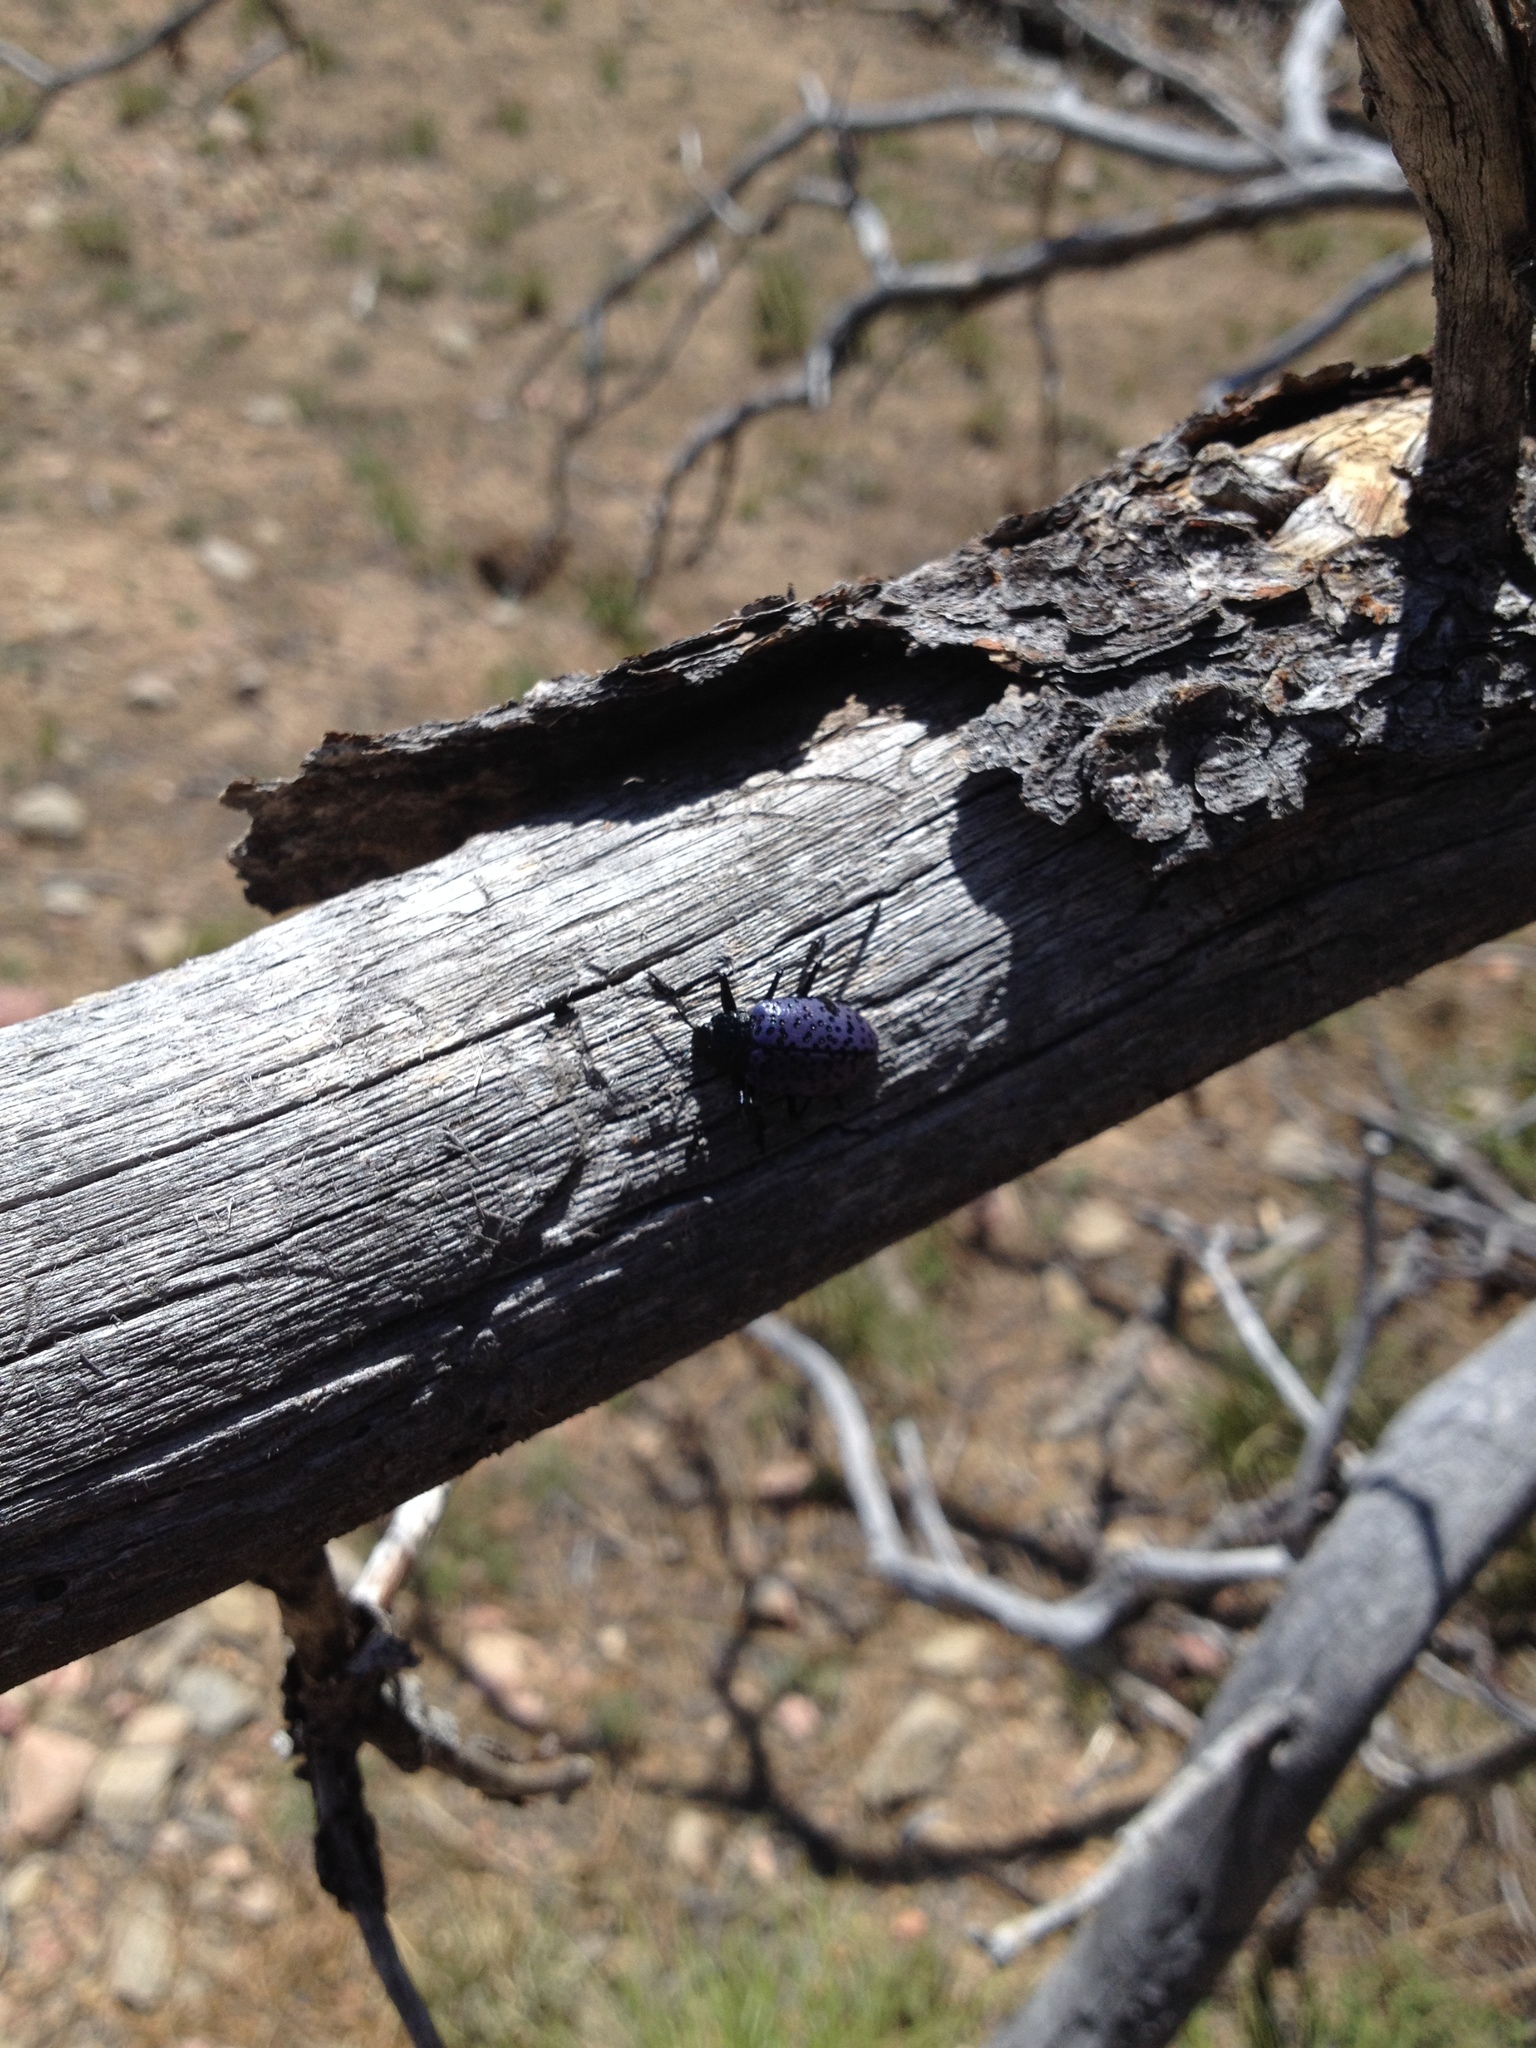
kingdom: Animalia
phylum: Arthropoda
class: Insecta
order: Coleoptera
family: Erotylidae
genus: Gibbifer
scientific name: Gibbifer californicus
